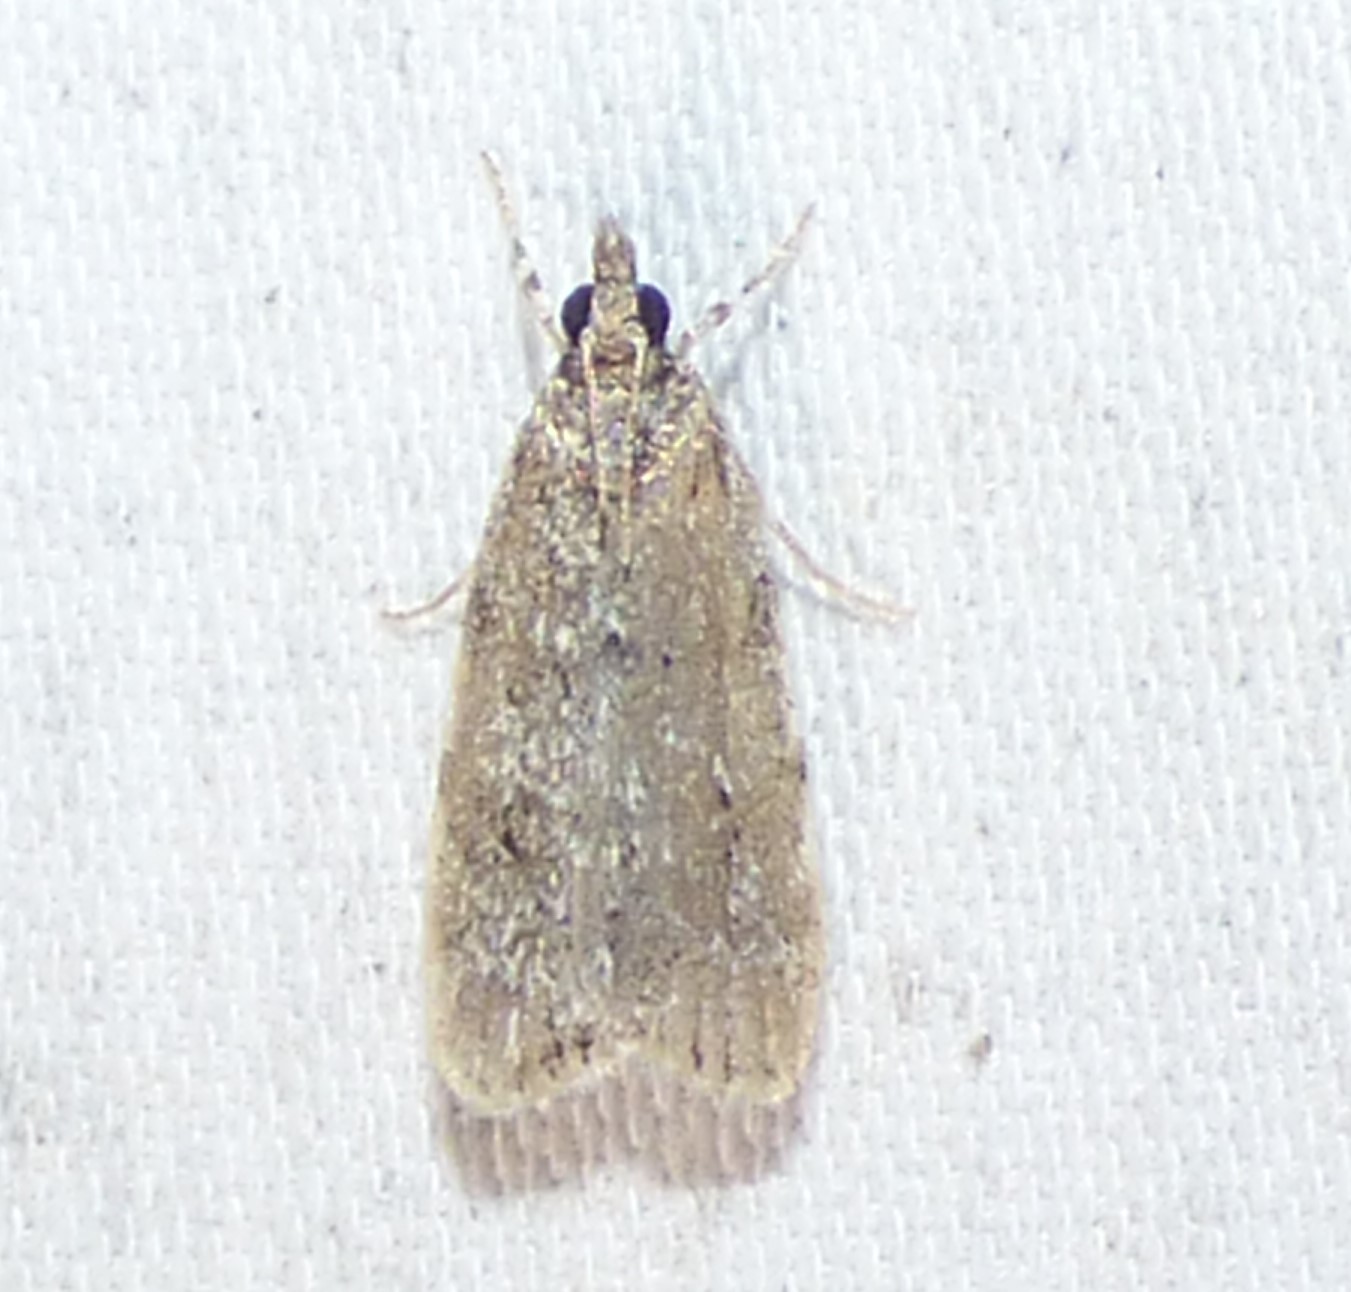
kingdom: Animalia
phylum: Arthropoda
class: Insecta
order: Lepidoptera
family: Crambidae
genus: Scoparia
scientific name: Scoparia basalis
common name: Many-spotted scoparia moth
